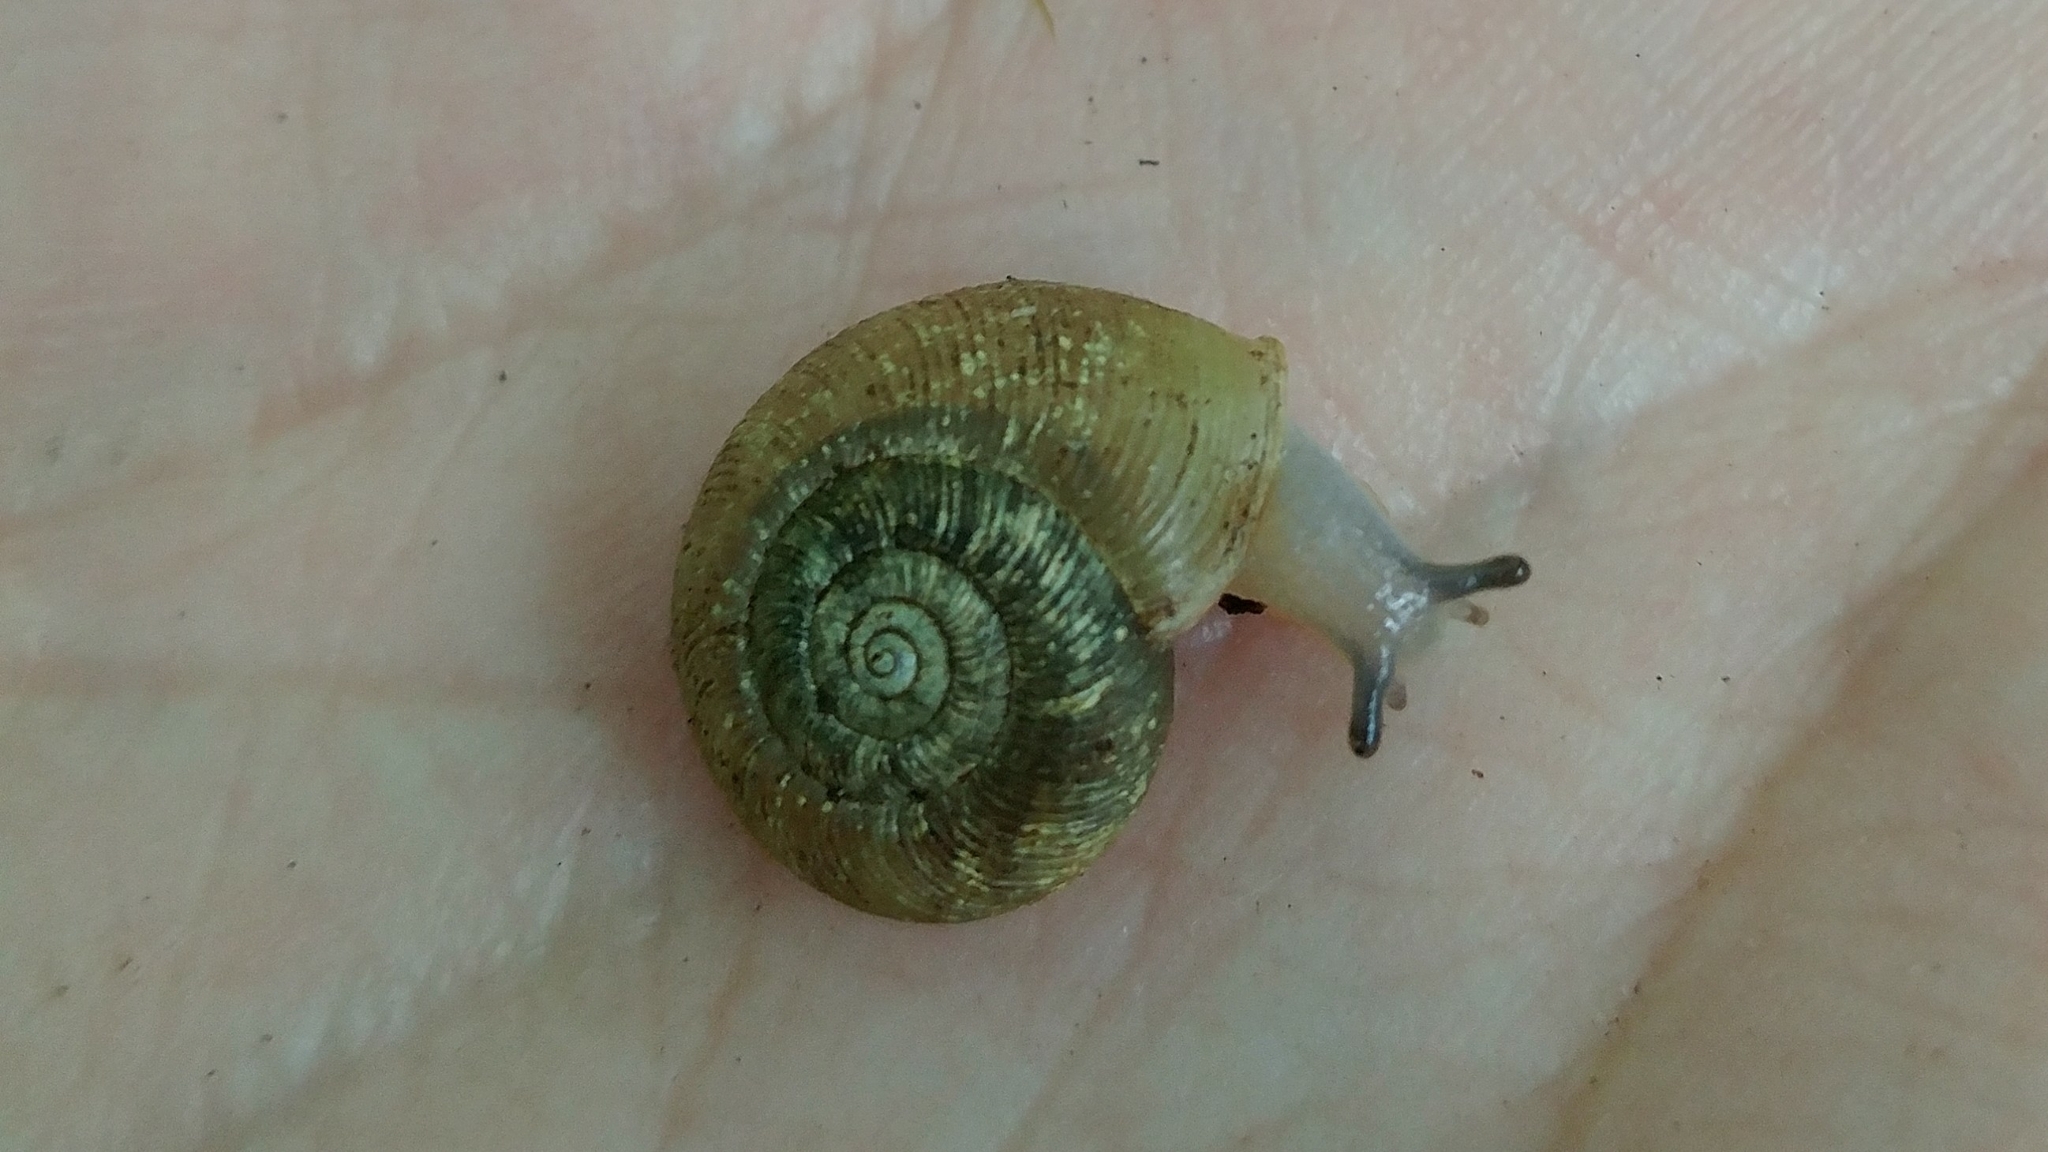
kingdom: Animalia
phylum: Mollusca
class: Gastropoda
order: Stylommatophora
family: Haplotrematidae
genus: Ancotrema
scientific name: Ancotrema sportella
